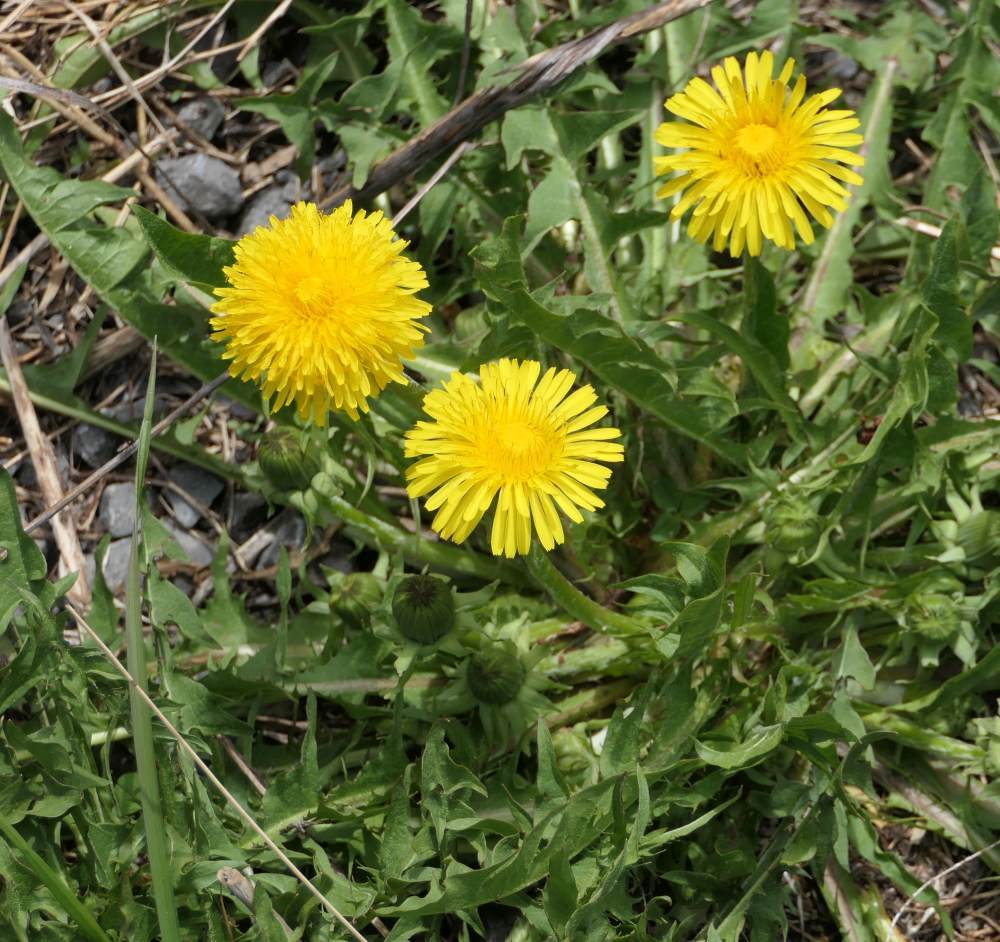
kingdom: Plantae
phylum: Tracheophyta
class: Magnoliopsida
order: Asterales
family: Asteraceae
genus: Taraxacum
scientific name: Taraxacum officinale
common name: Common dandelion
